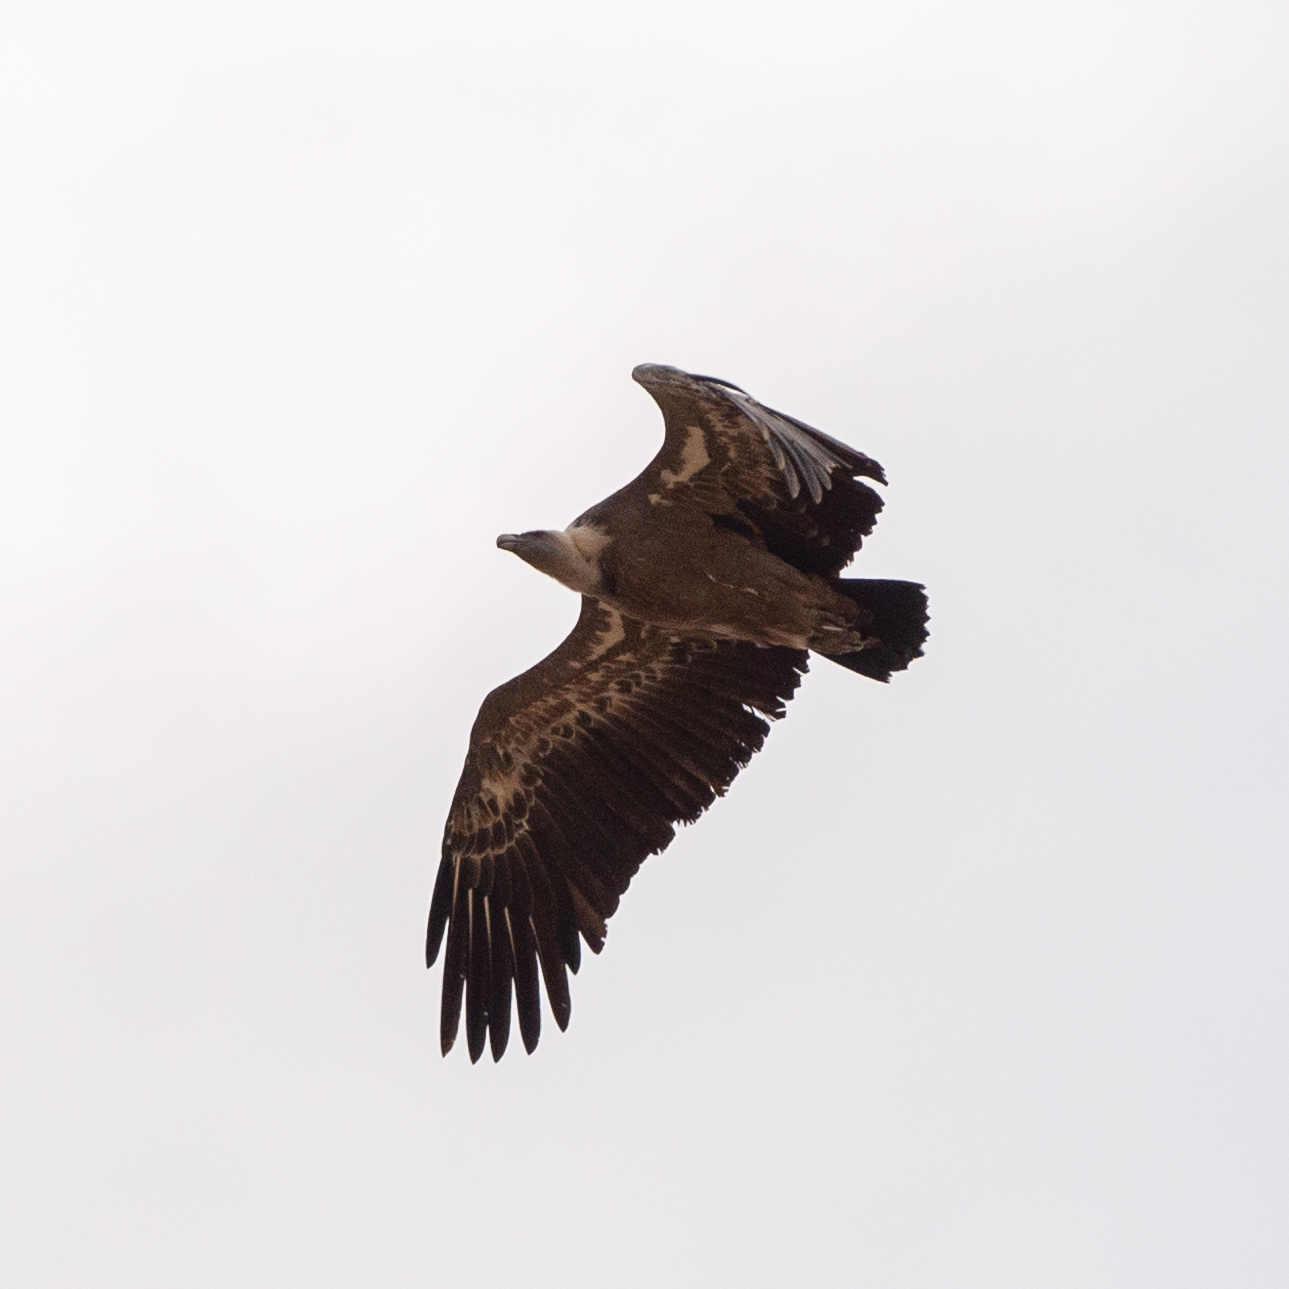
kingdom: Animalia
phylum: Chordata
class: Aves
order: Accipitriformes
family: Accipitridae
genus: Gyps
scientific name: Gyps fulvus
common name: Griffon vulture
